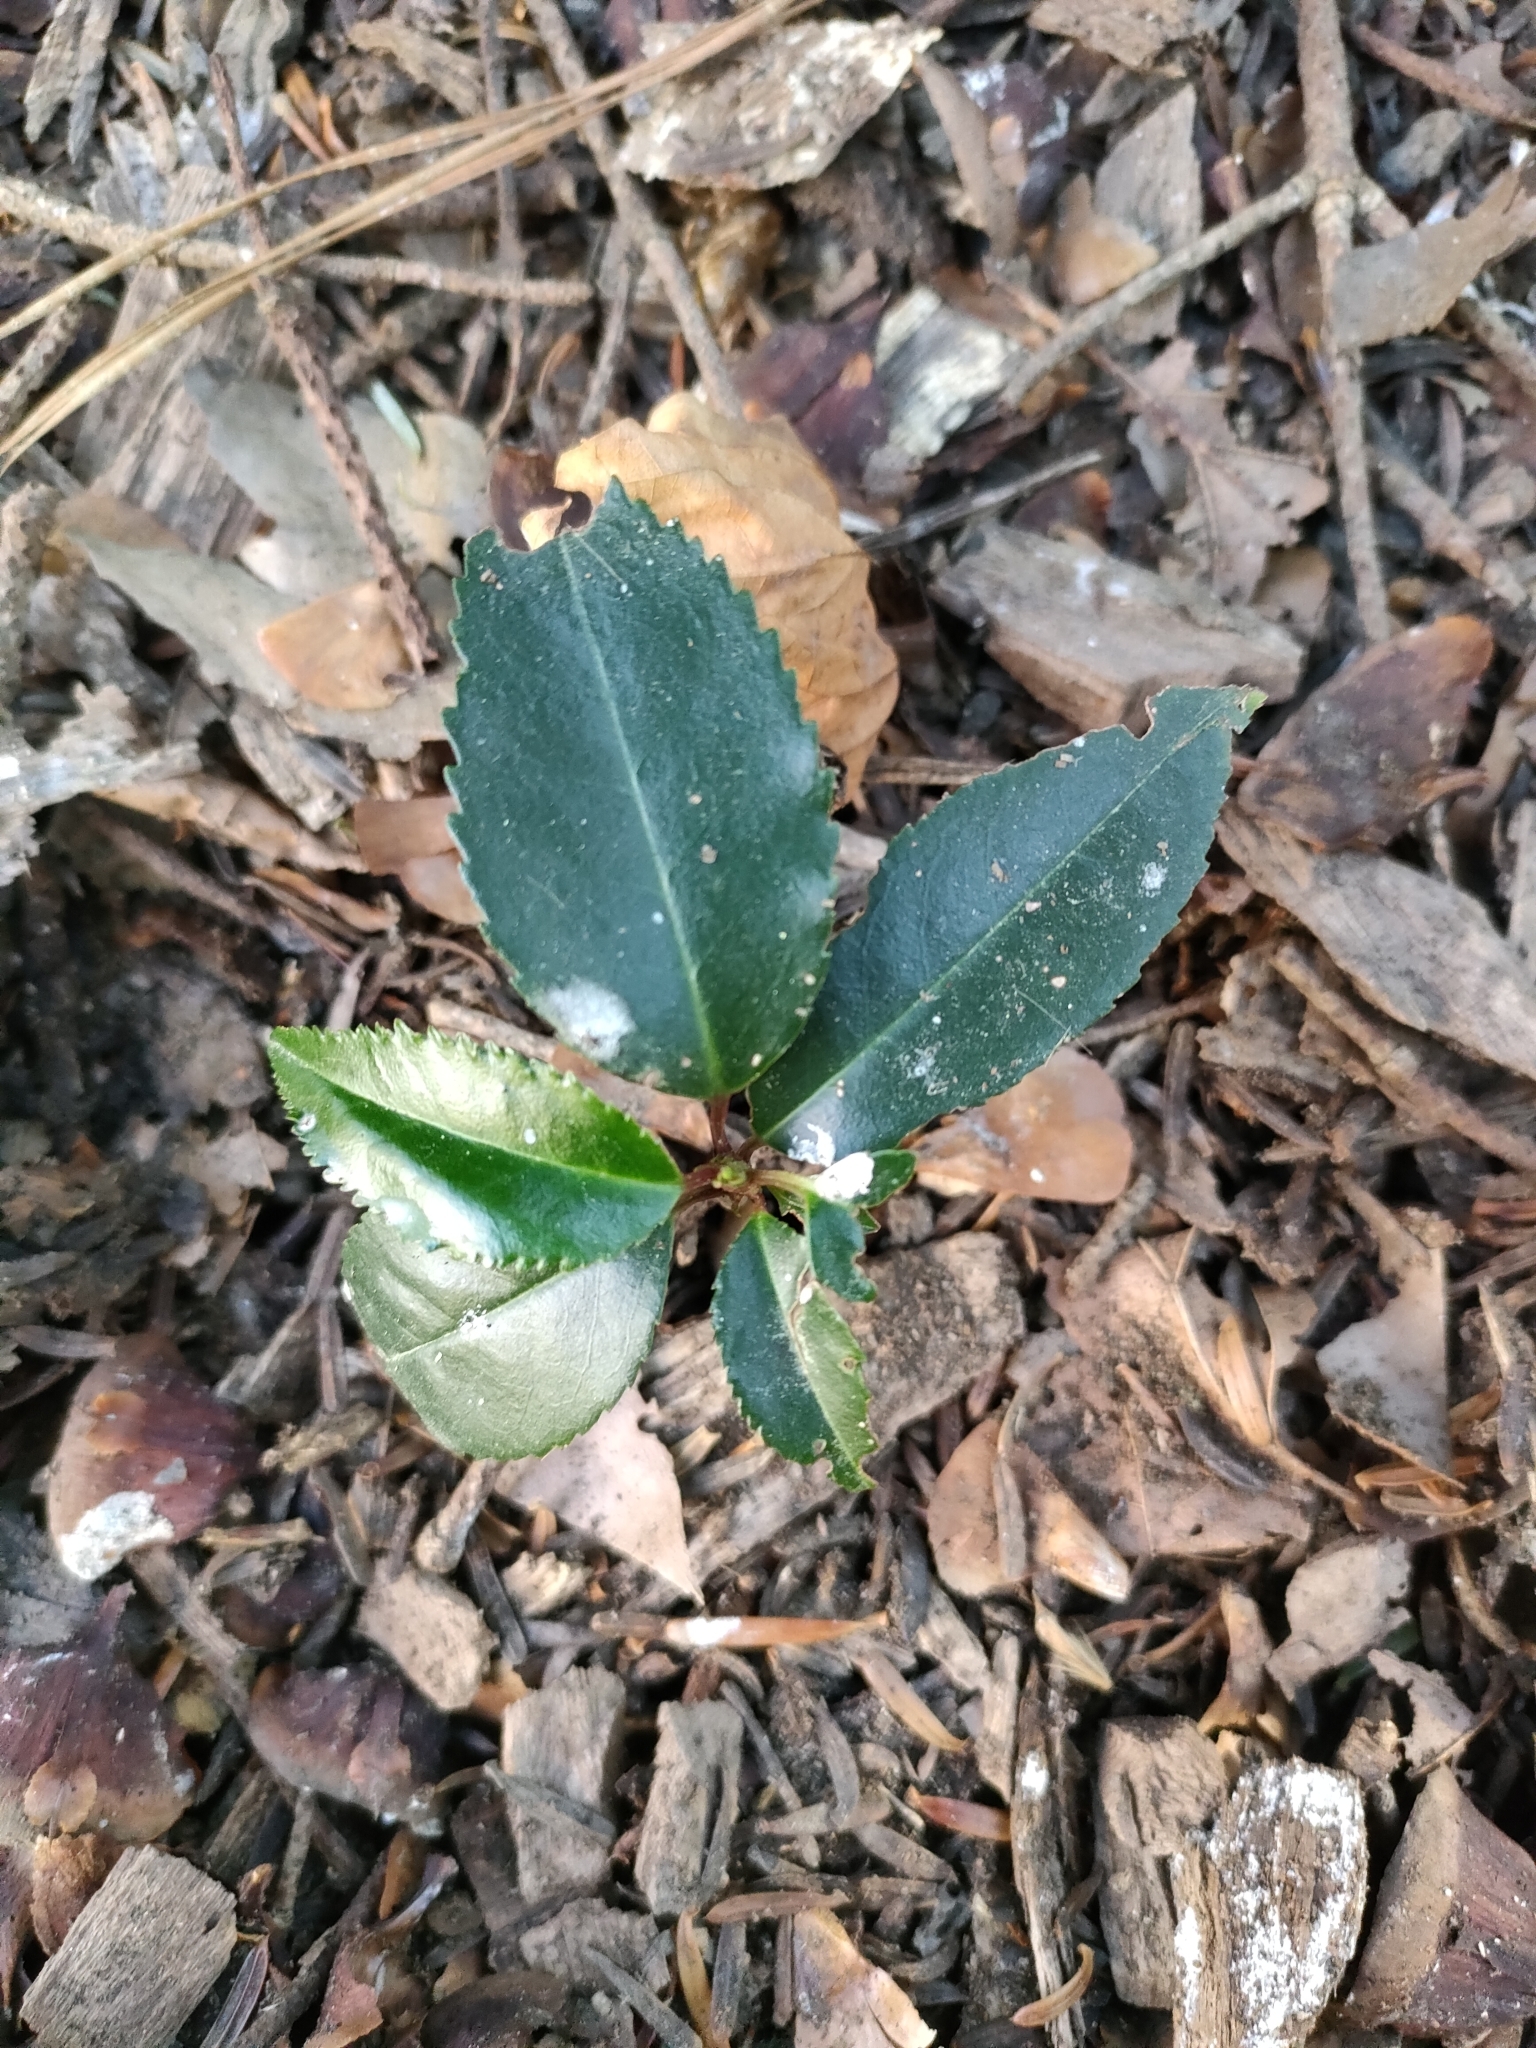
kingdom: Plantae
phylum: Tracheophyta
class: Magnoliopsida
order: Rosales
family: Rosaceae
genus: Prunus
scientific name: Prunus lusitanica
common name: Portugal laurel
